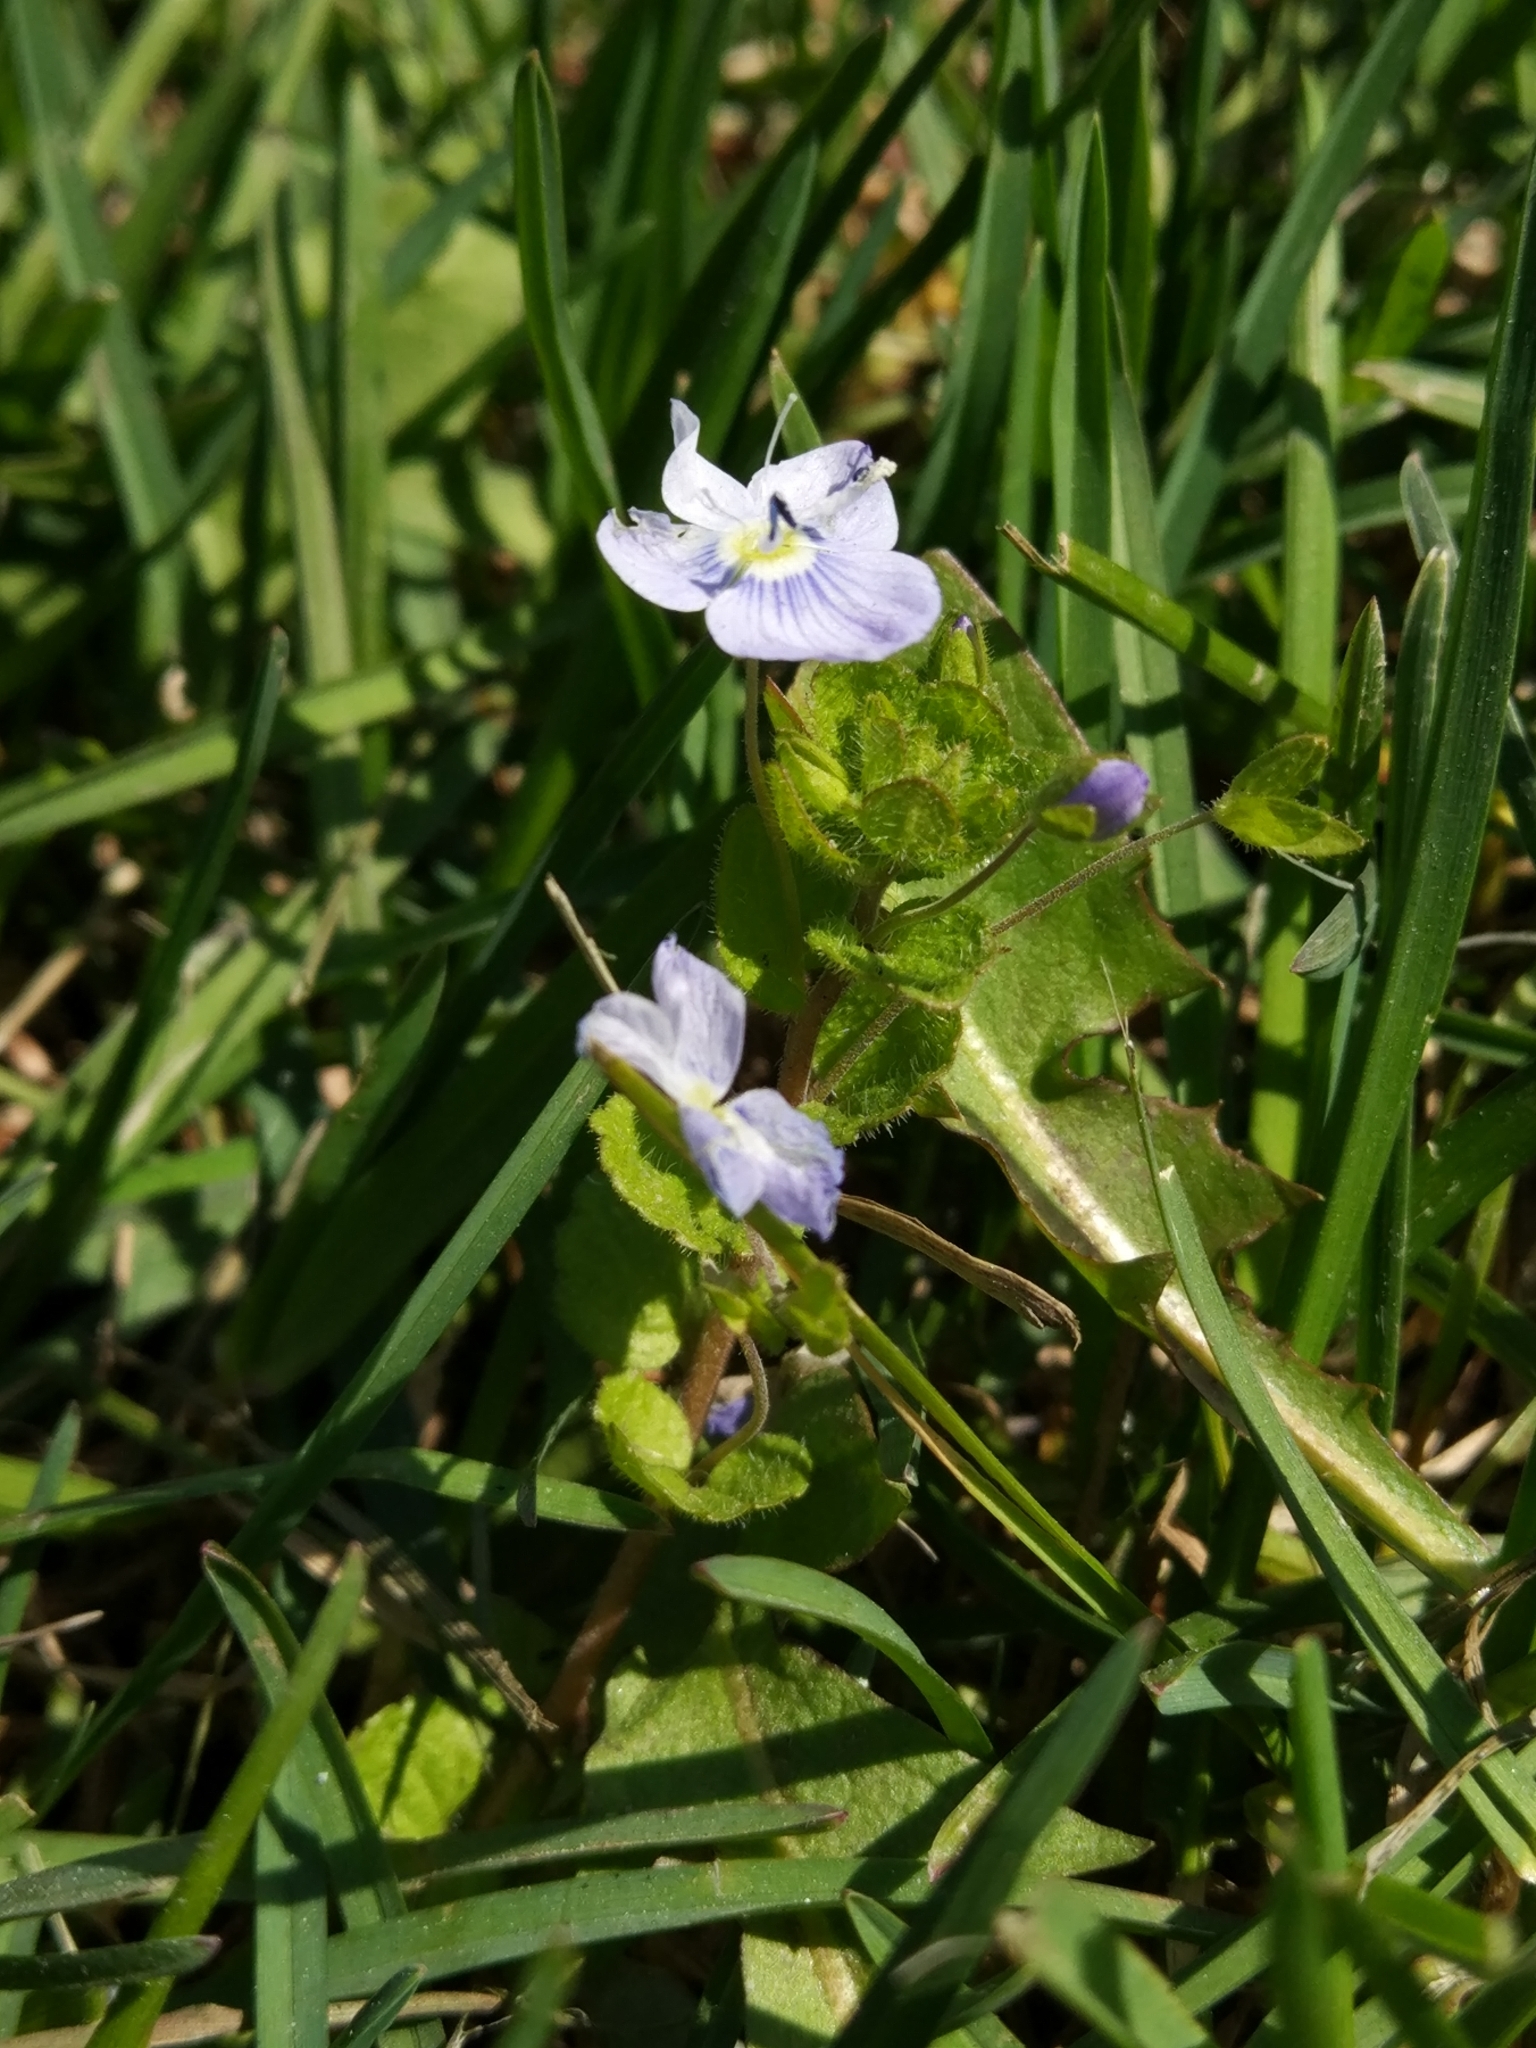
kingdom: Plantae
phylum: Tracheophyta
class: Magnoliopsida
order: Lamiales
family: Plantaginaceae
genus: Veronica
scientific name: Veronica filiformis
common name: Slender speedwell
